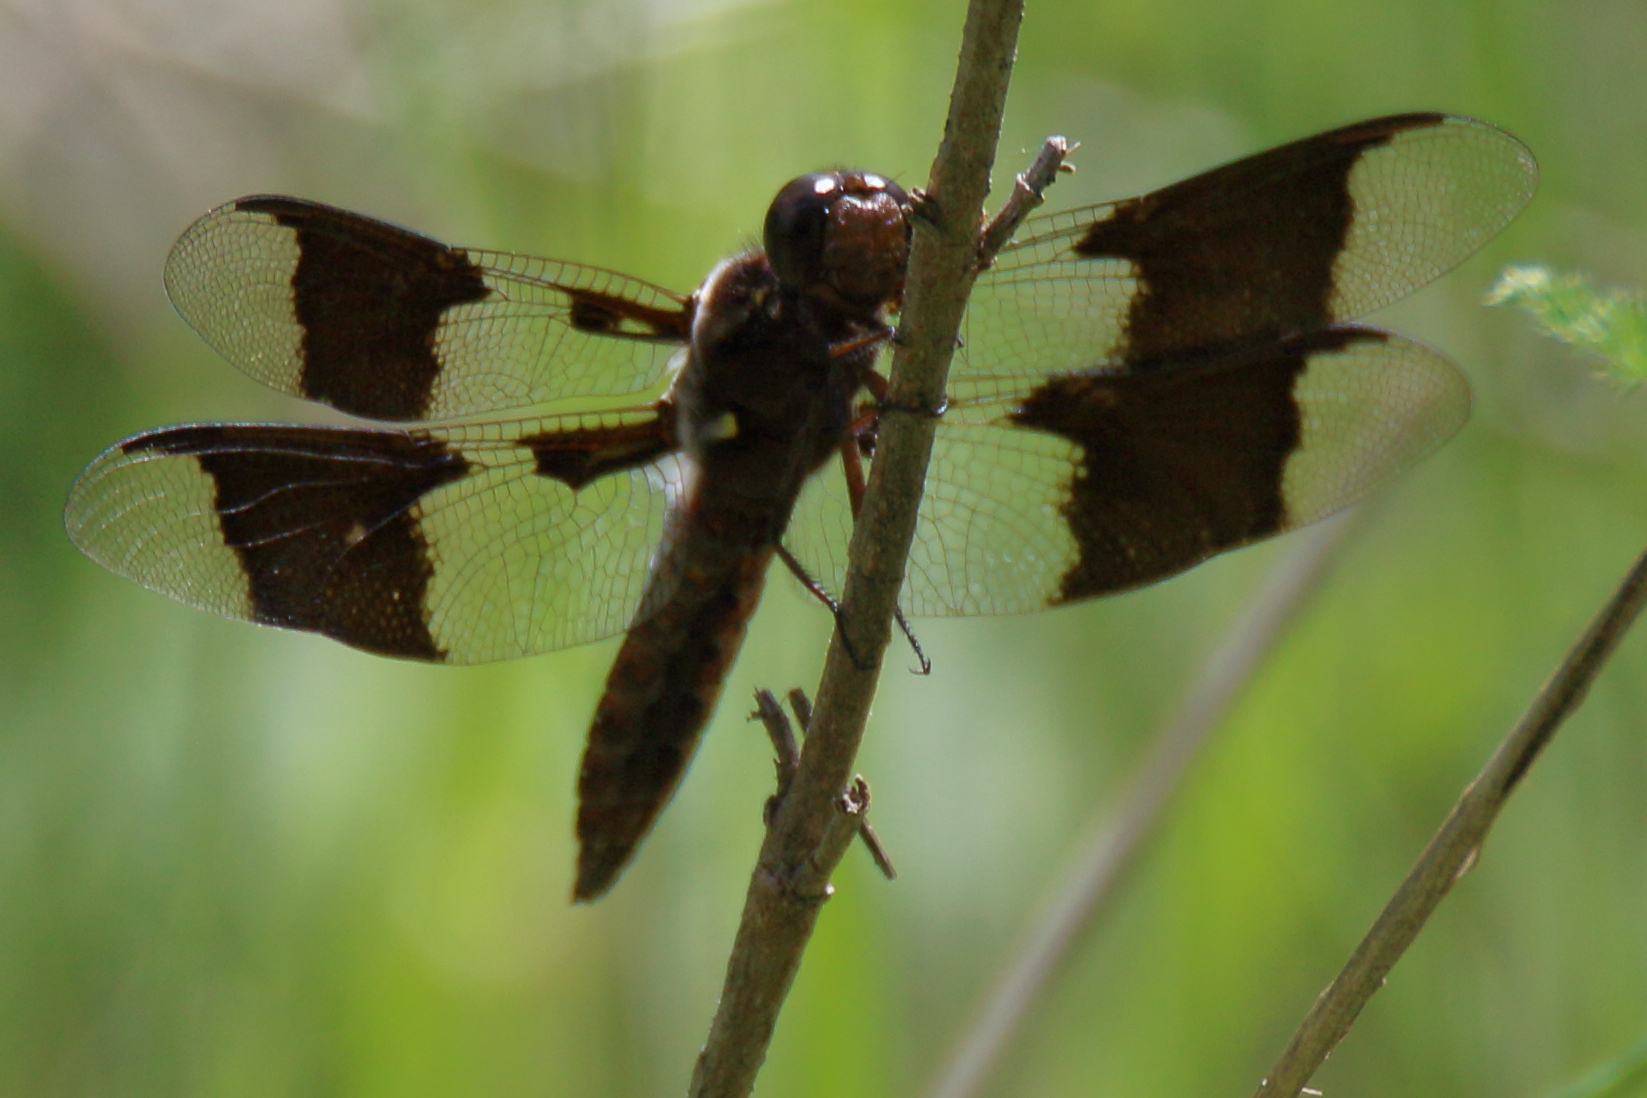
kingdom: Animalia
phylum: Arthropoda
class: Insecta
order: Odonata
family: Libellulidae
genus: Plathemis
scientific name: Plathemis lydia
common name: Common whitetail
